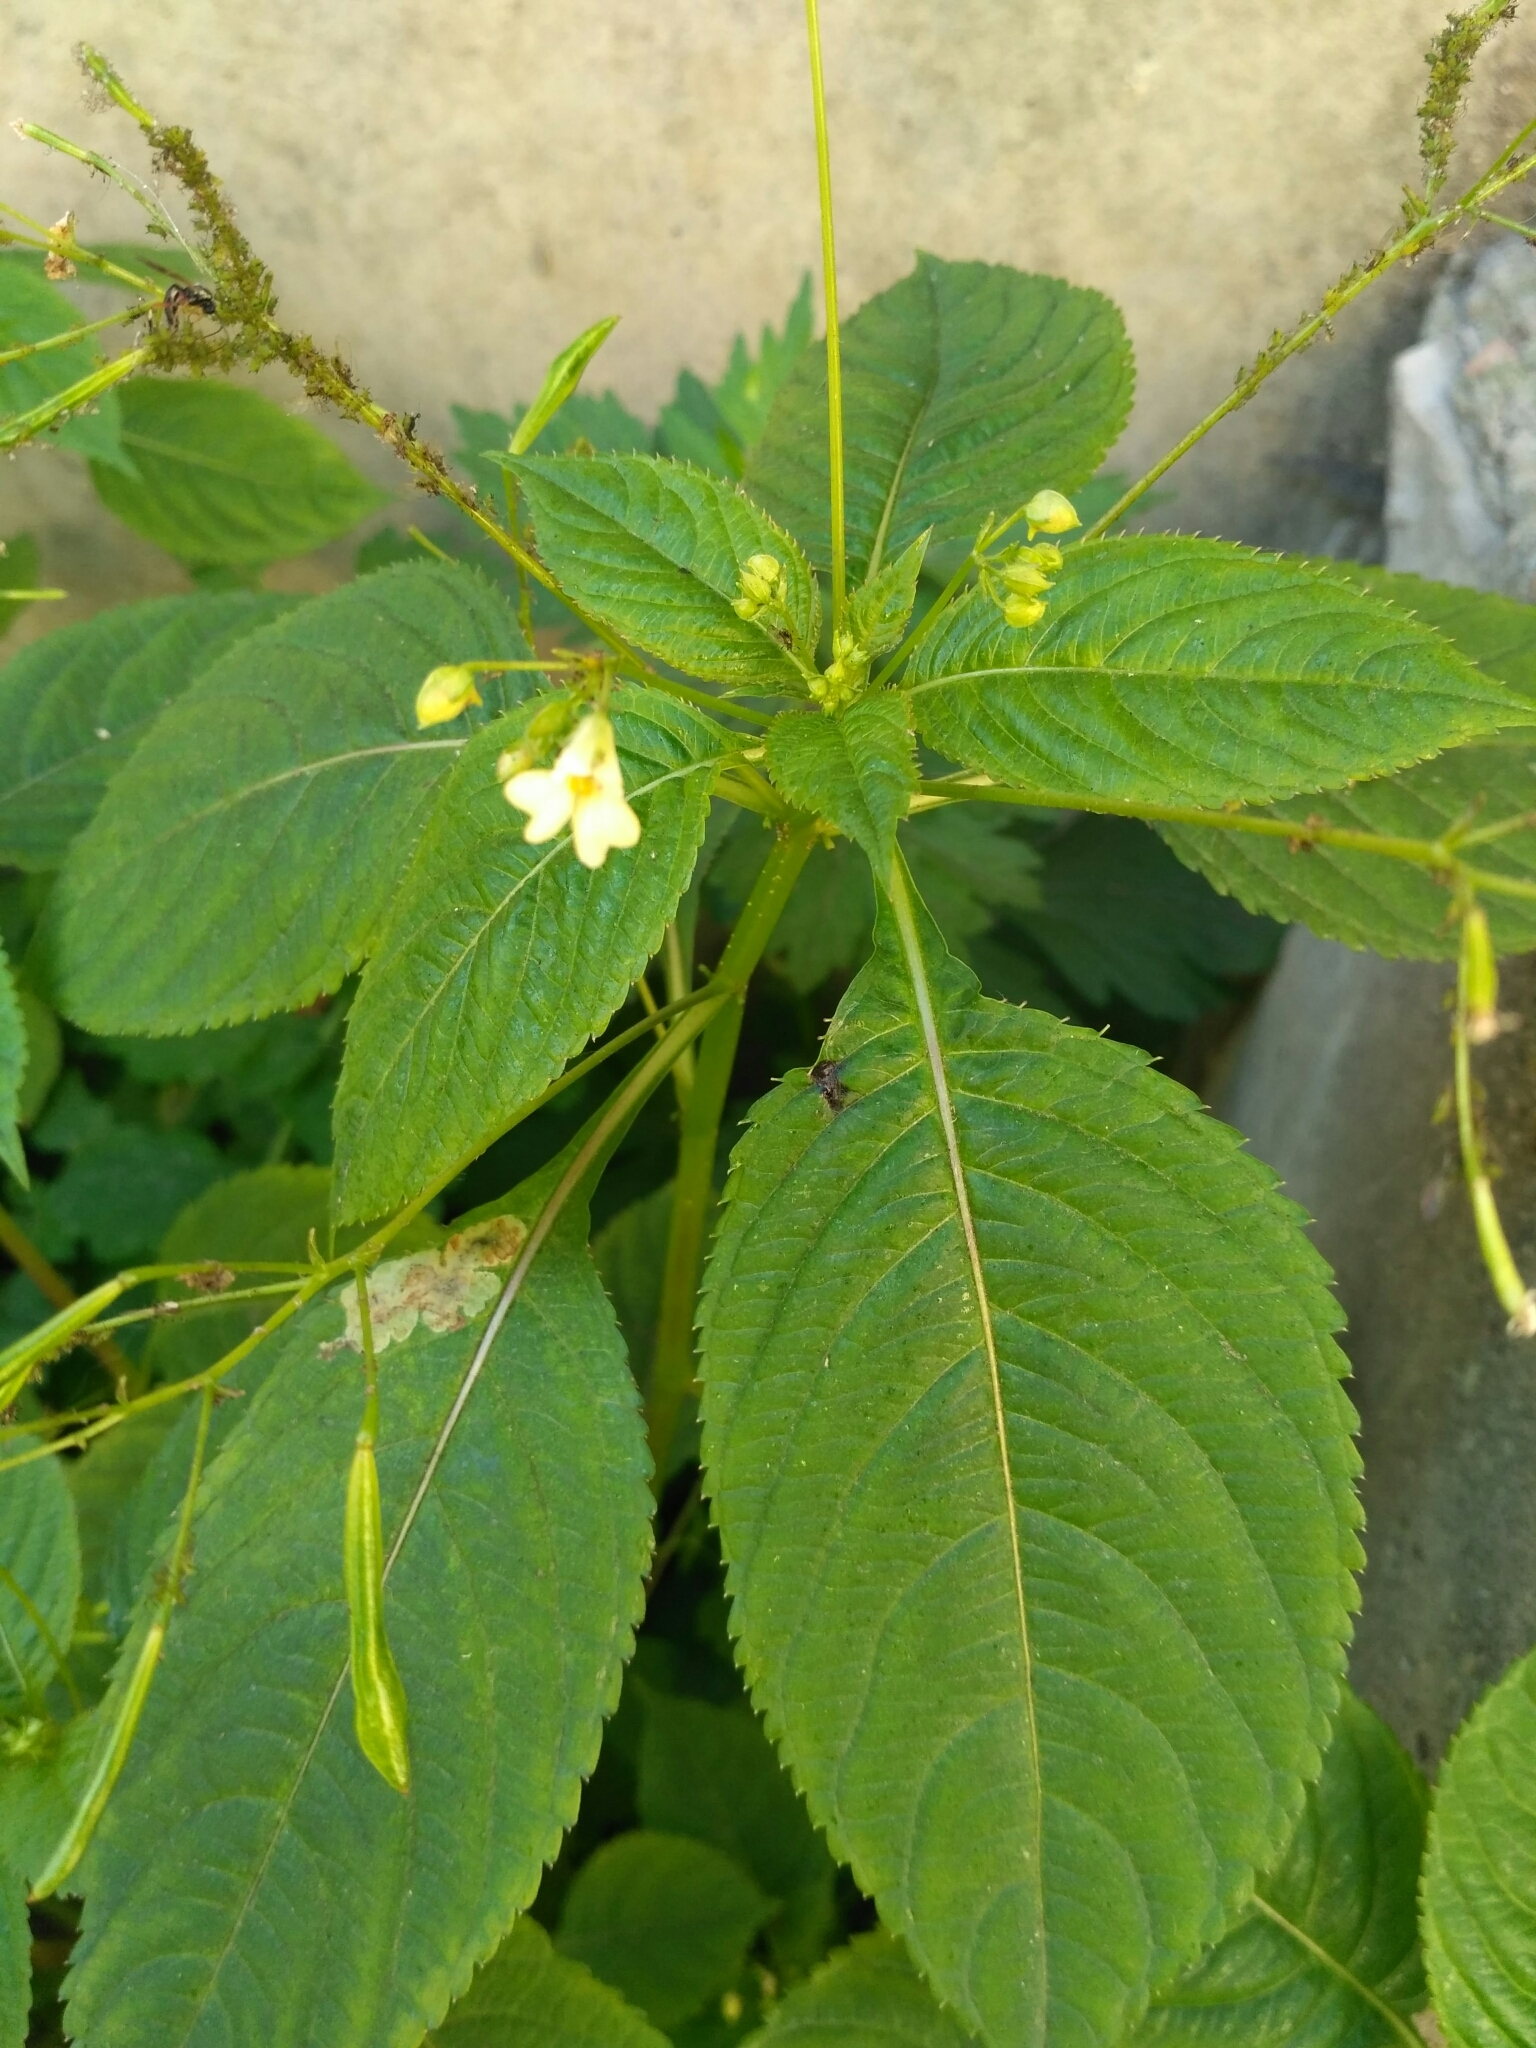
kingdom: Plantae
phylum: Tracheophyta
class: Magnoliopsida
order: Ericales
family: Balsaminaceae
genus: Impatiens
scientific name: Impatiens parviflora
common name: Small balsam
